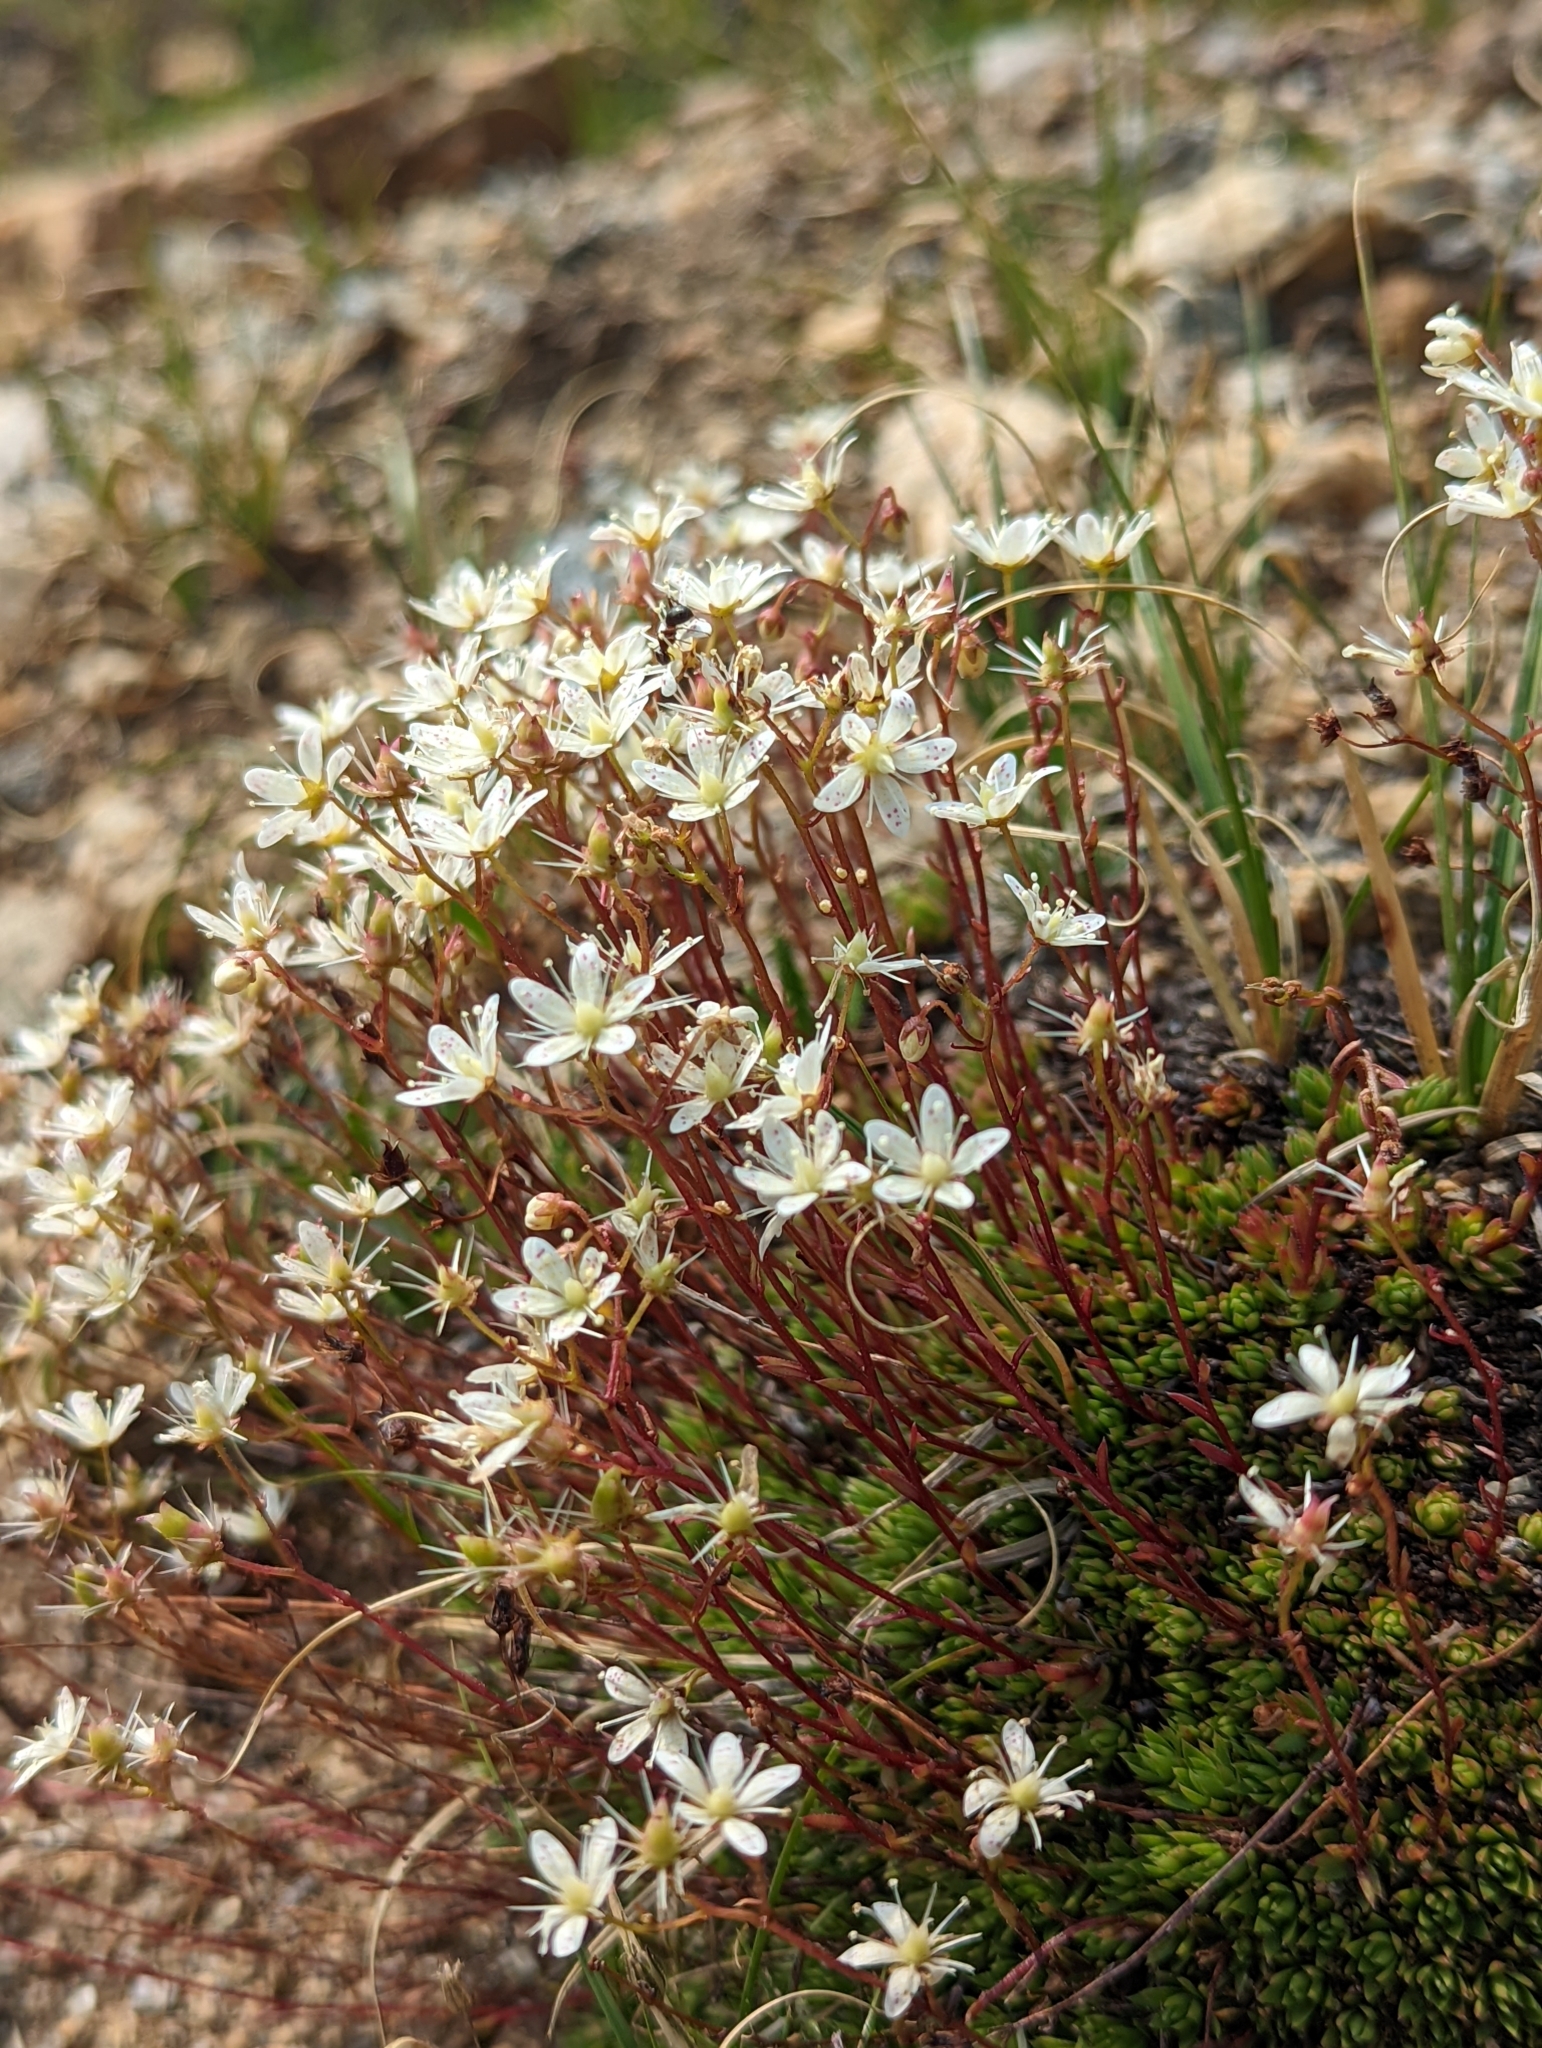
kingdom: Plantae
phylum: Tracheophyta
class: Magnoliopsida
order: Saxifragales
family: Saxifragaceae
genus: Saxifraga
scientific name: Saxifraga bronchialis
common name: Matted saxifrage
